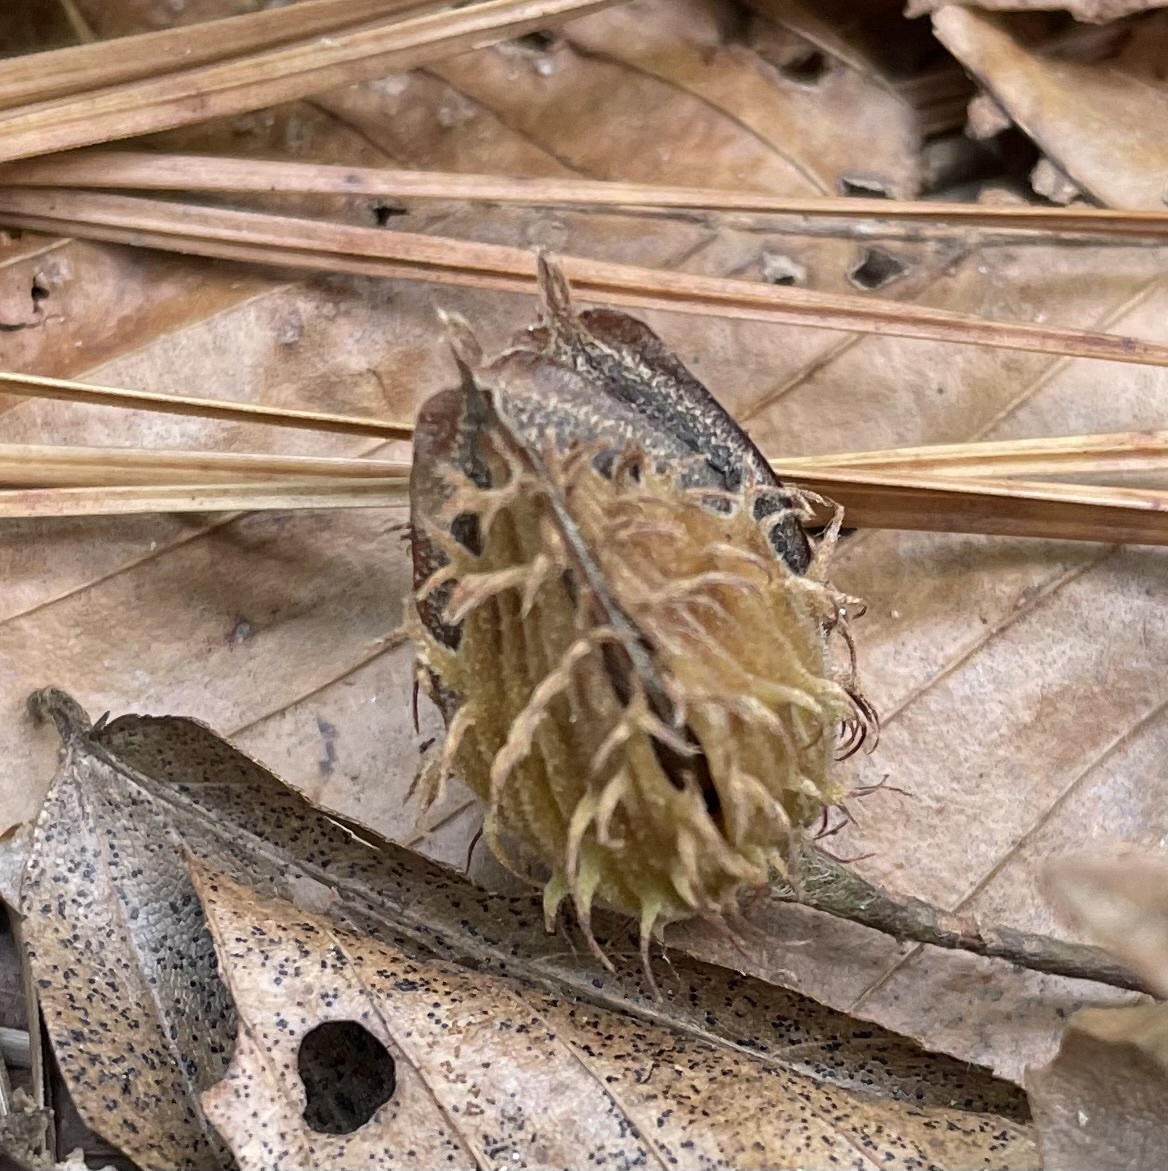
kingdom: Plantae
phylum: Tracheophyta
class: Magnoliopsida
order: Fagales
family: Fagaceae
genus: Fagus
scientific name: Fagus grandifolia
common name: American beech
